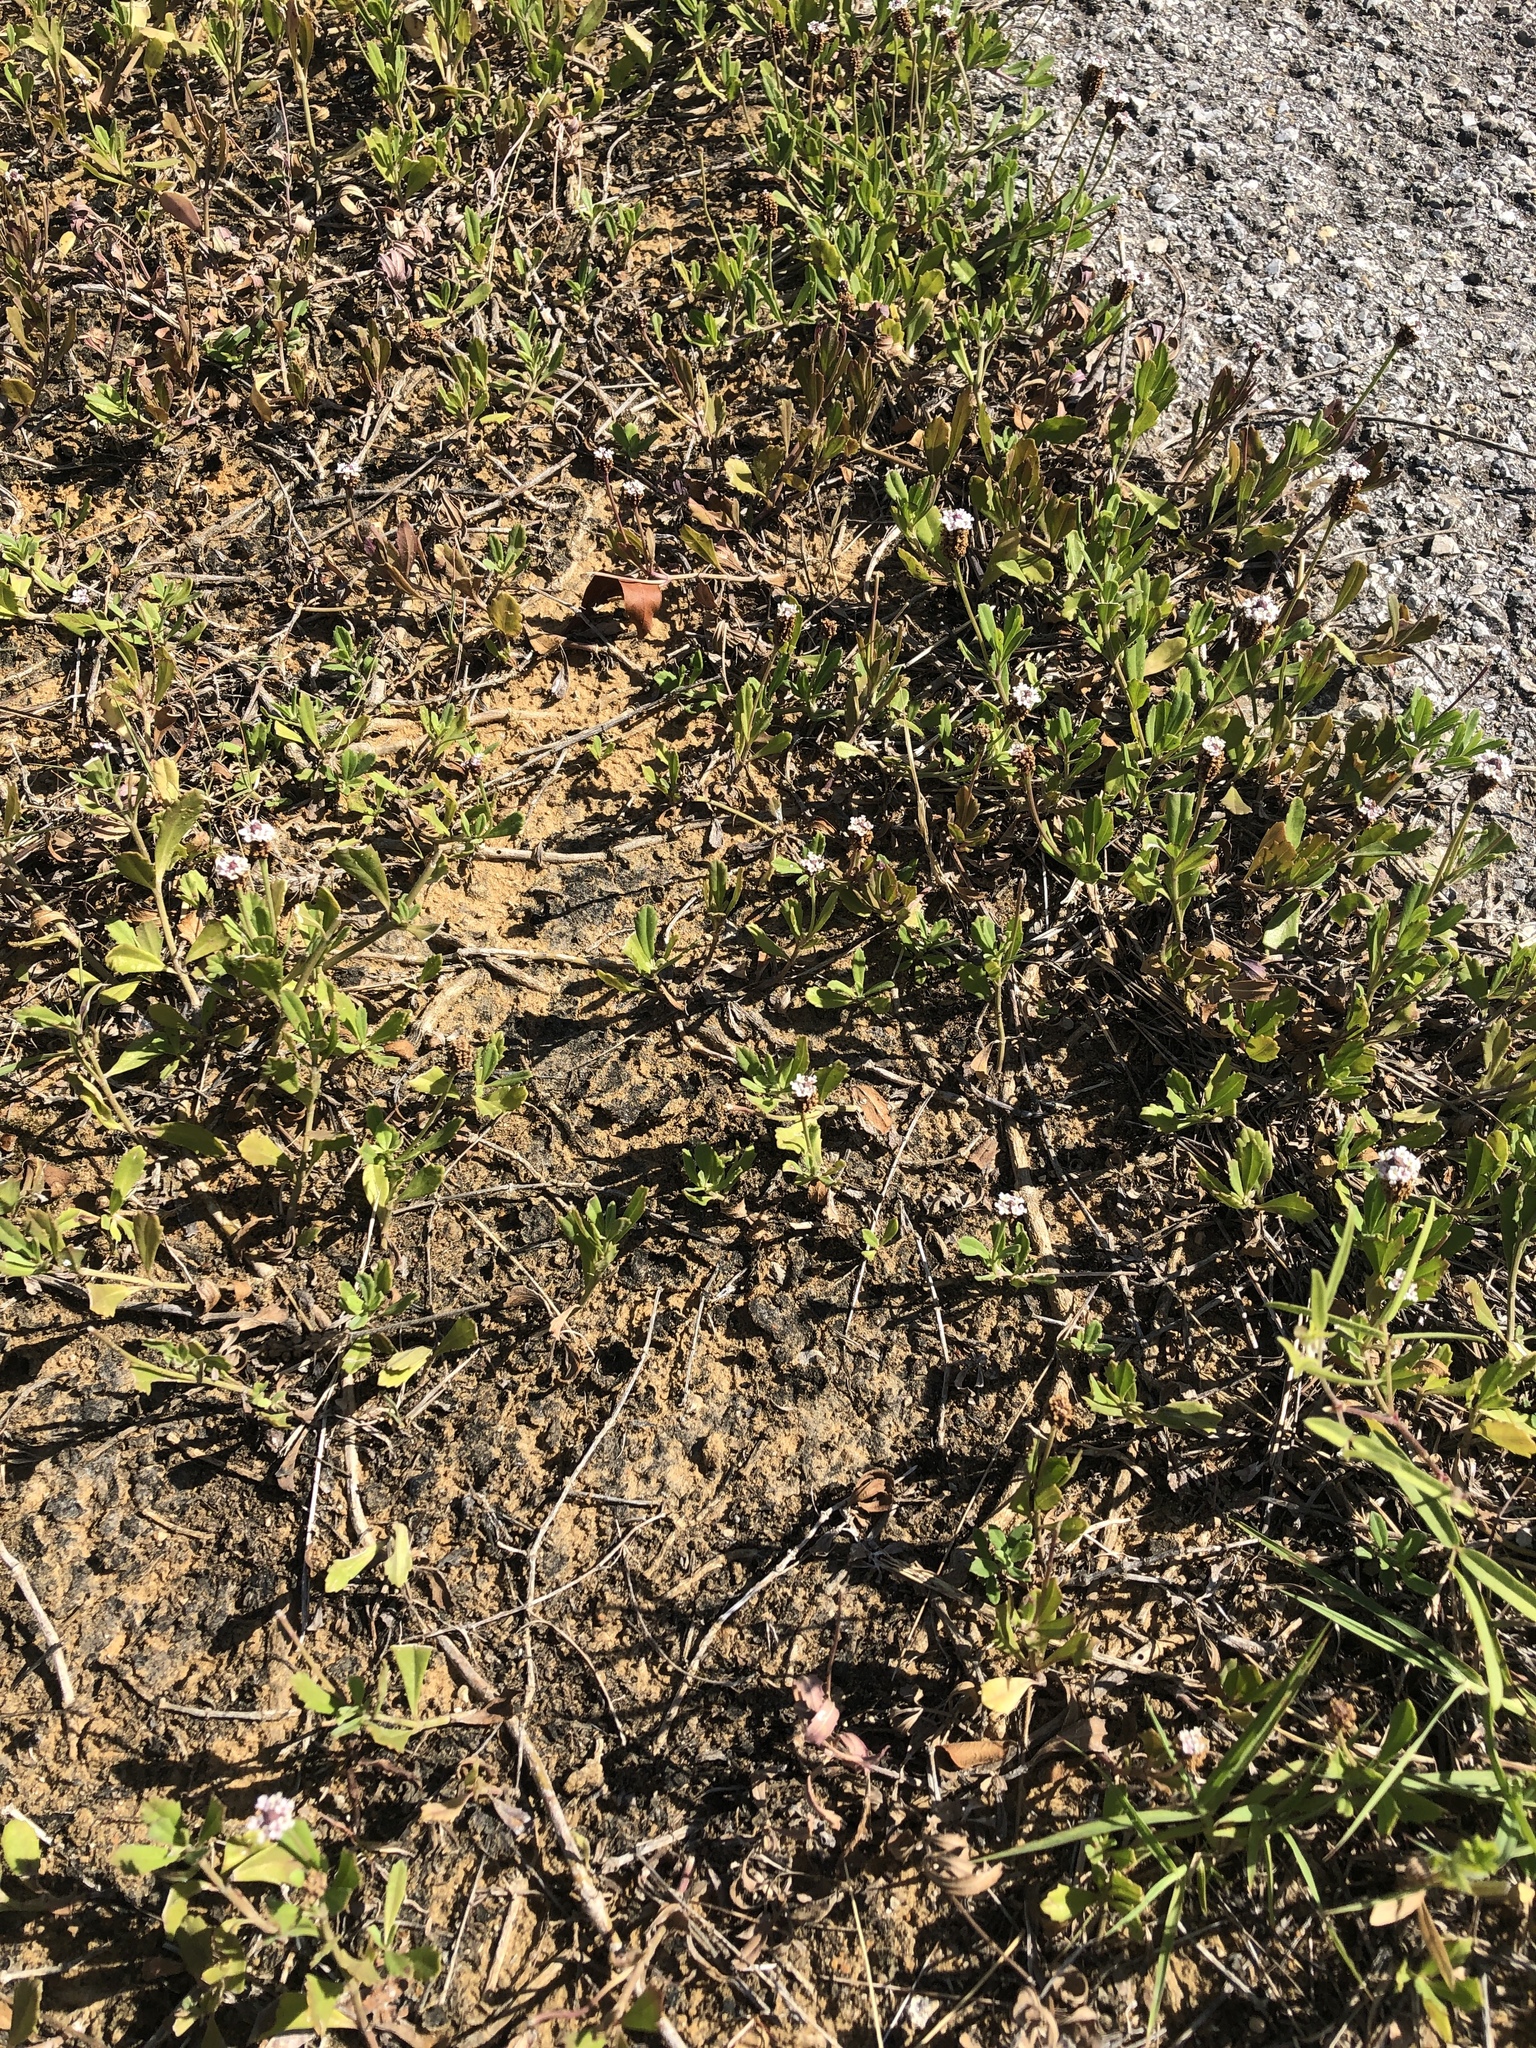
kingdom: Plantae
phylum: Tracheophyta
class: Magnoliopsida
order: Lamiales
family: Verbenaceae
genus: Phyla
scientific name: Phyla nodiflora
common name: Frogfruit
